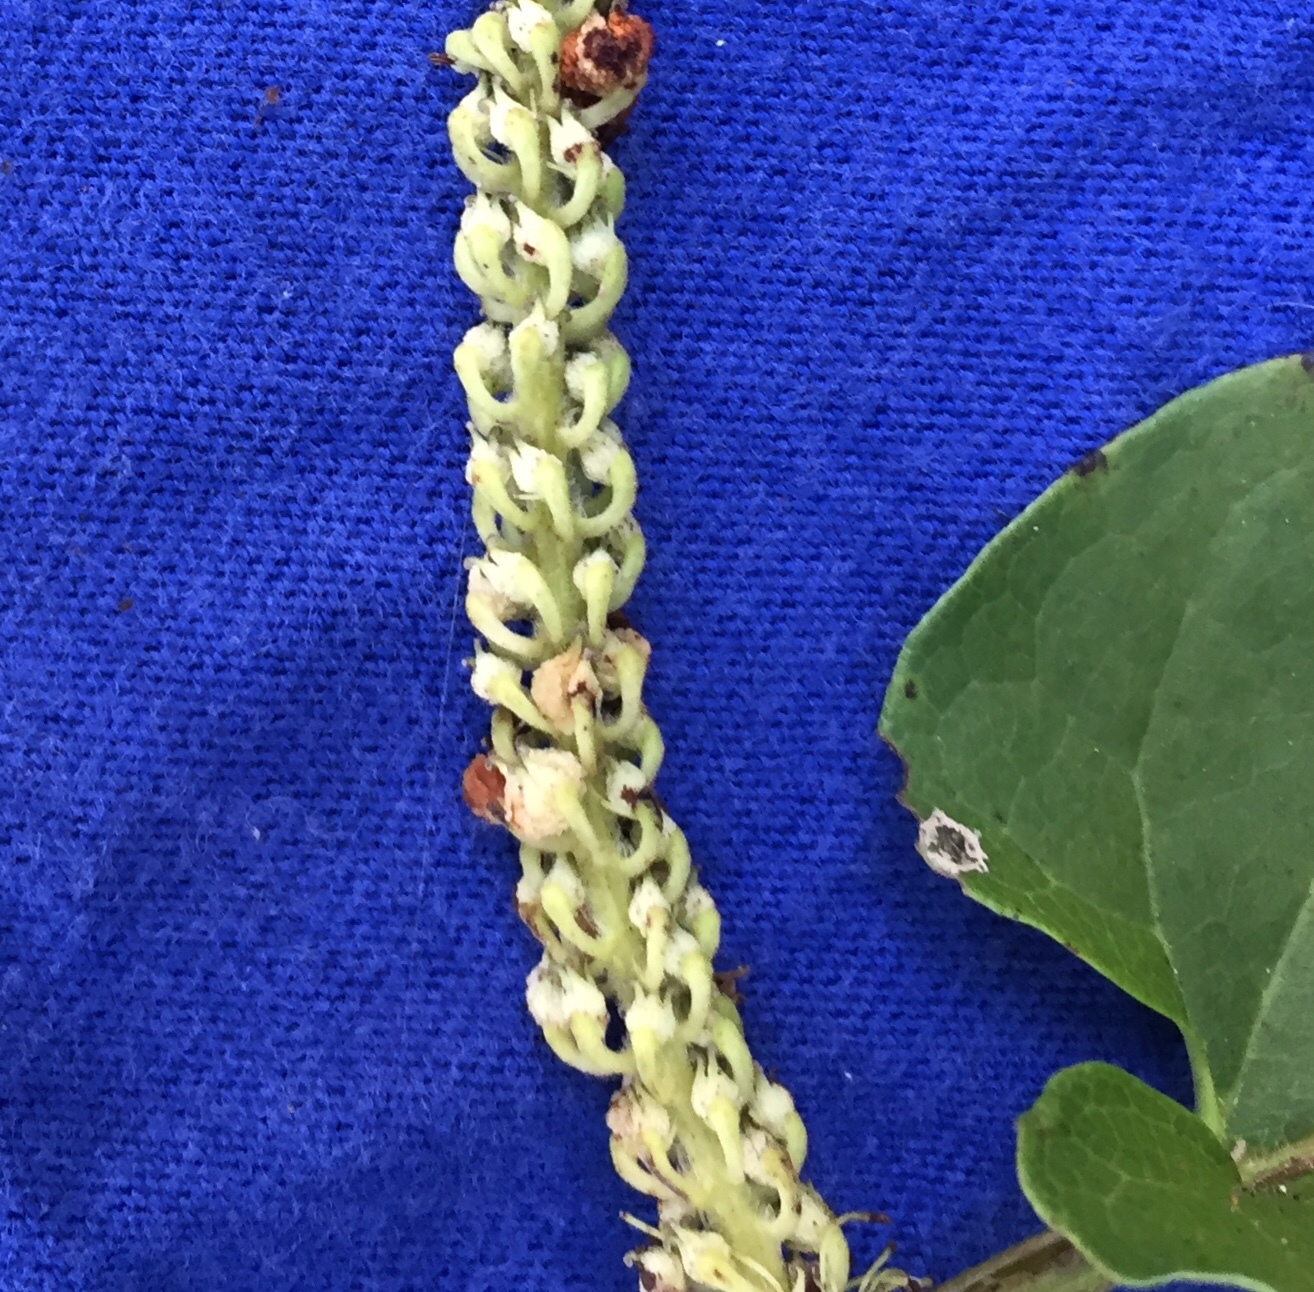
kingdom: Plantae
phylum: Tracheophyta
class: Magnoliopsida
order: Piperales
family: Saururaceae
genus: Saururus
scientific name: Saururus cernuus
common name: Lizard's-tail
